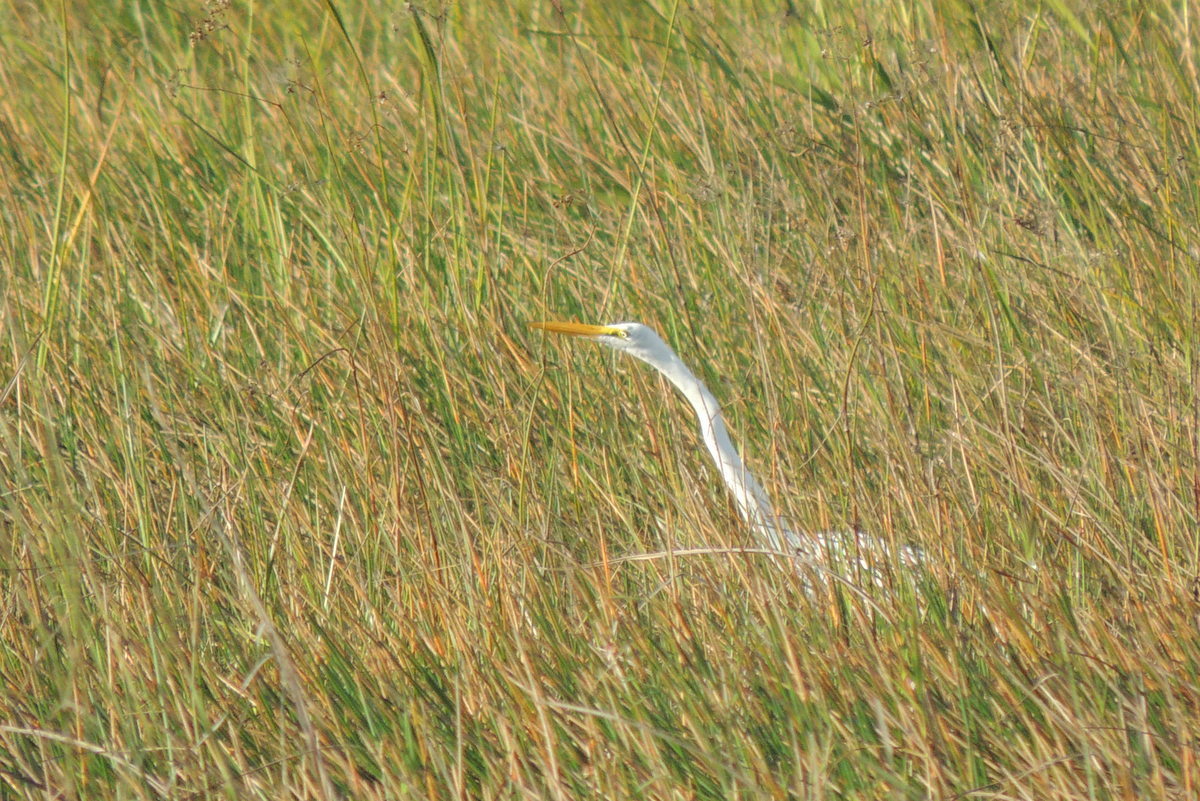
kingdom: Animalia
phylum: Chordata
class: Aves
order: Pelecaniformes
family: Ardeidae
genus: Ardea
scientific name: Ardea alba
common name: Great egret
